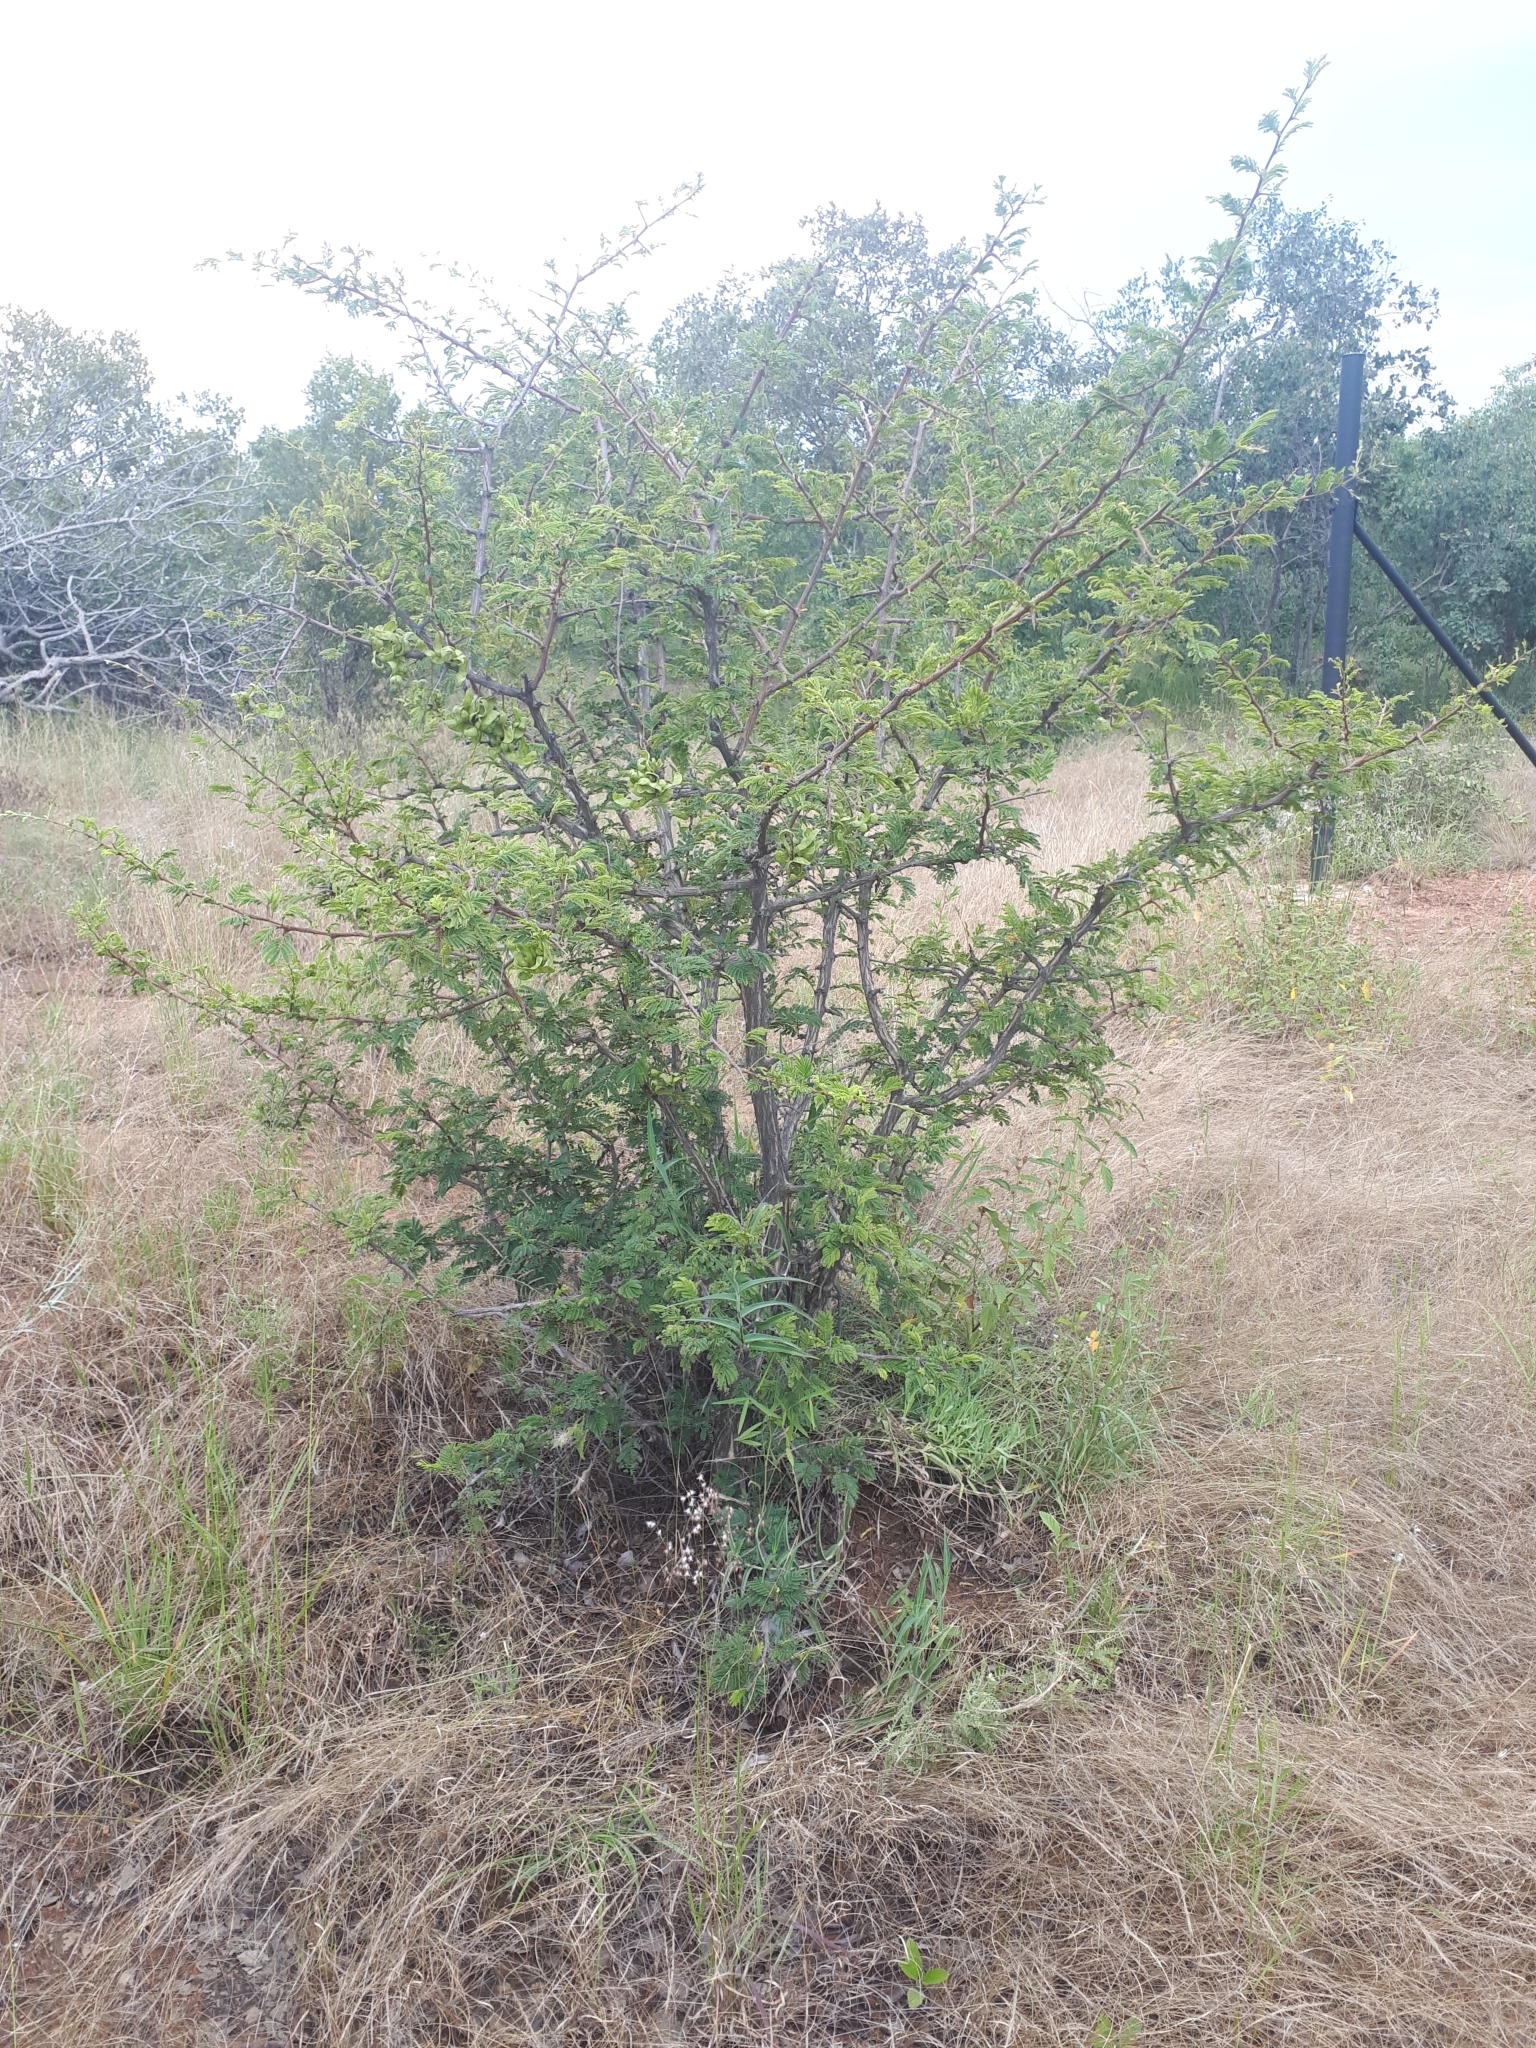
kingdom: Plantae
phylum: Tracheophyta
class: Magnoliopsida
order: Fabales
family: Fabaceae
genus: Dichrostachys
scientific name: Dichrostachys cinerea
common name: Sicklebush
